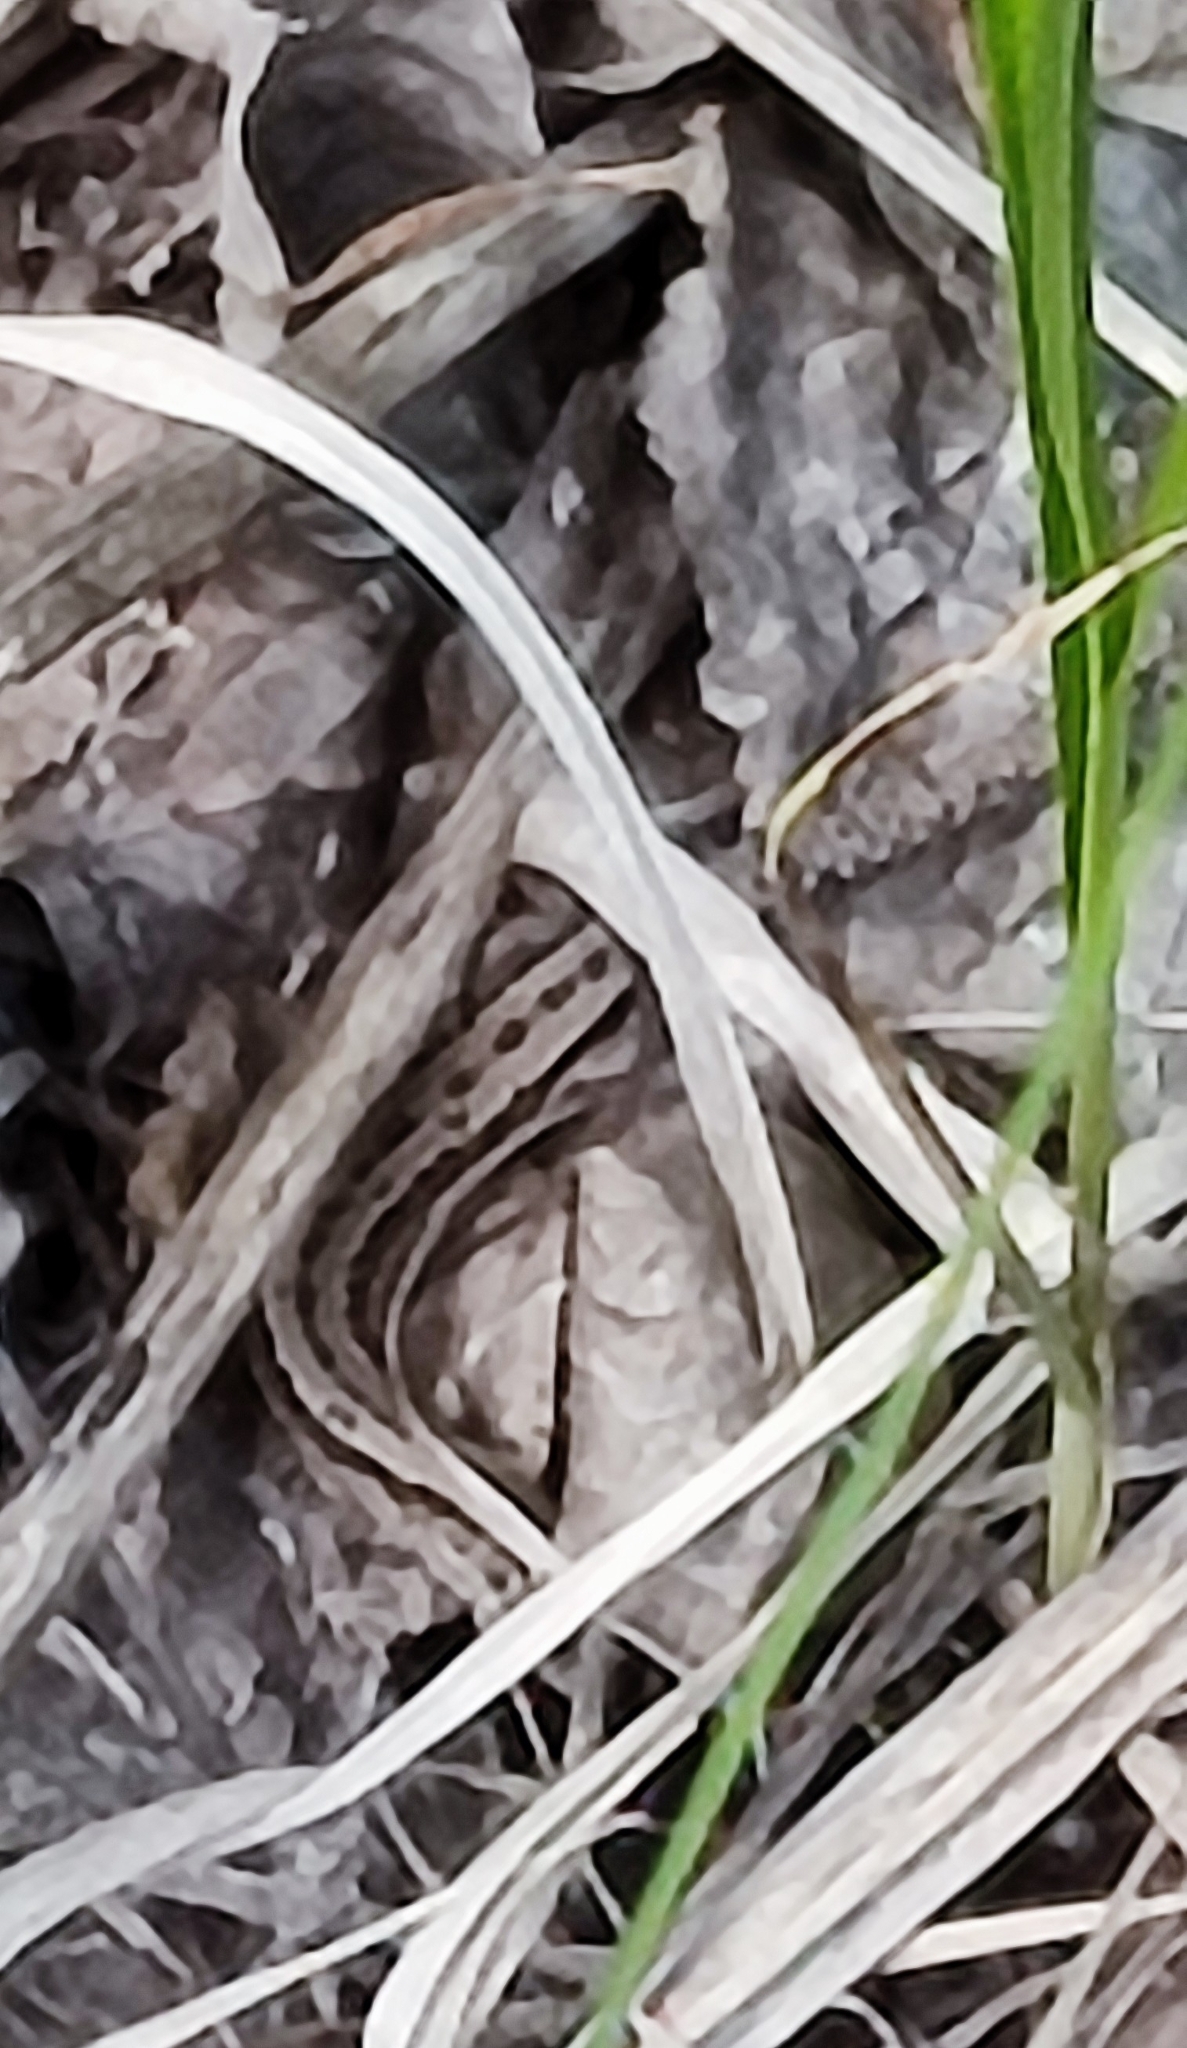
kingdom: Animalia
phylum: Chordata
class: Squamata
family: Lacertidae
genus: Zootoca
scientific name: Zootoca vivipara
